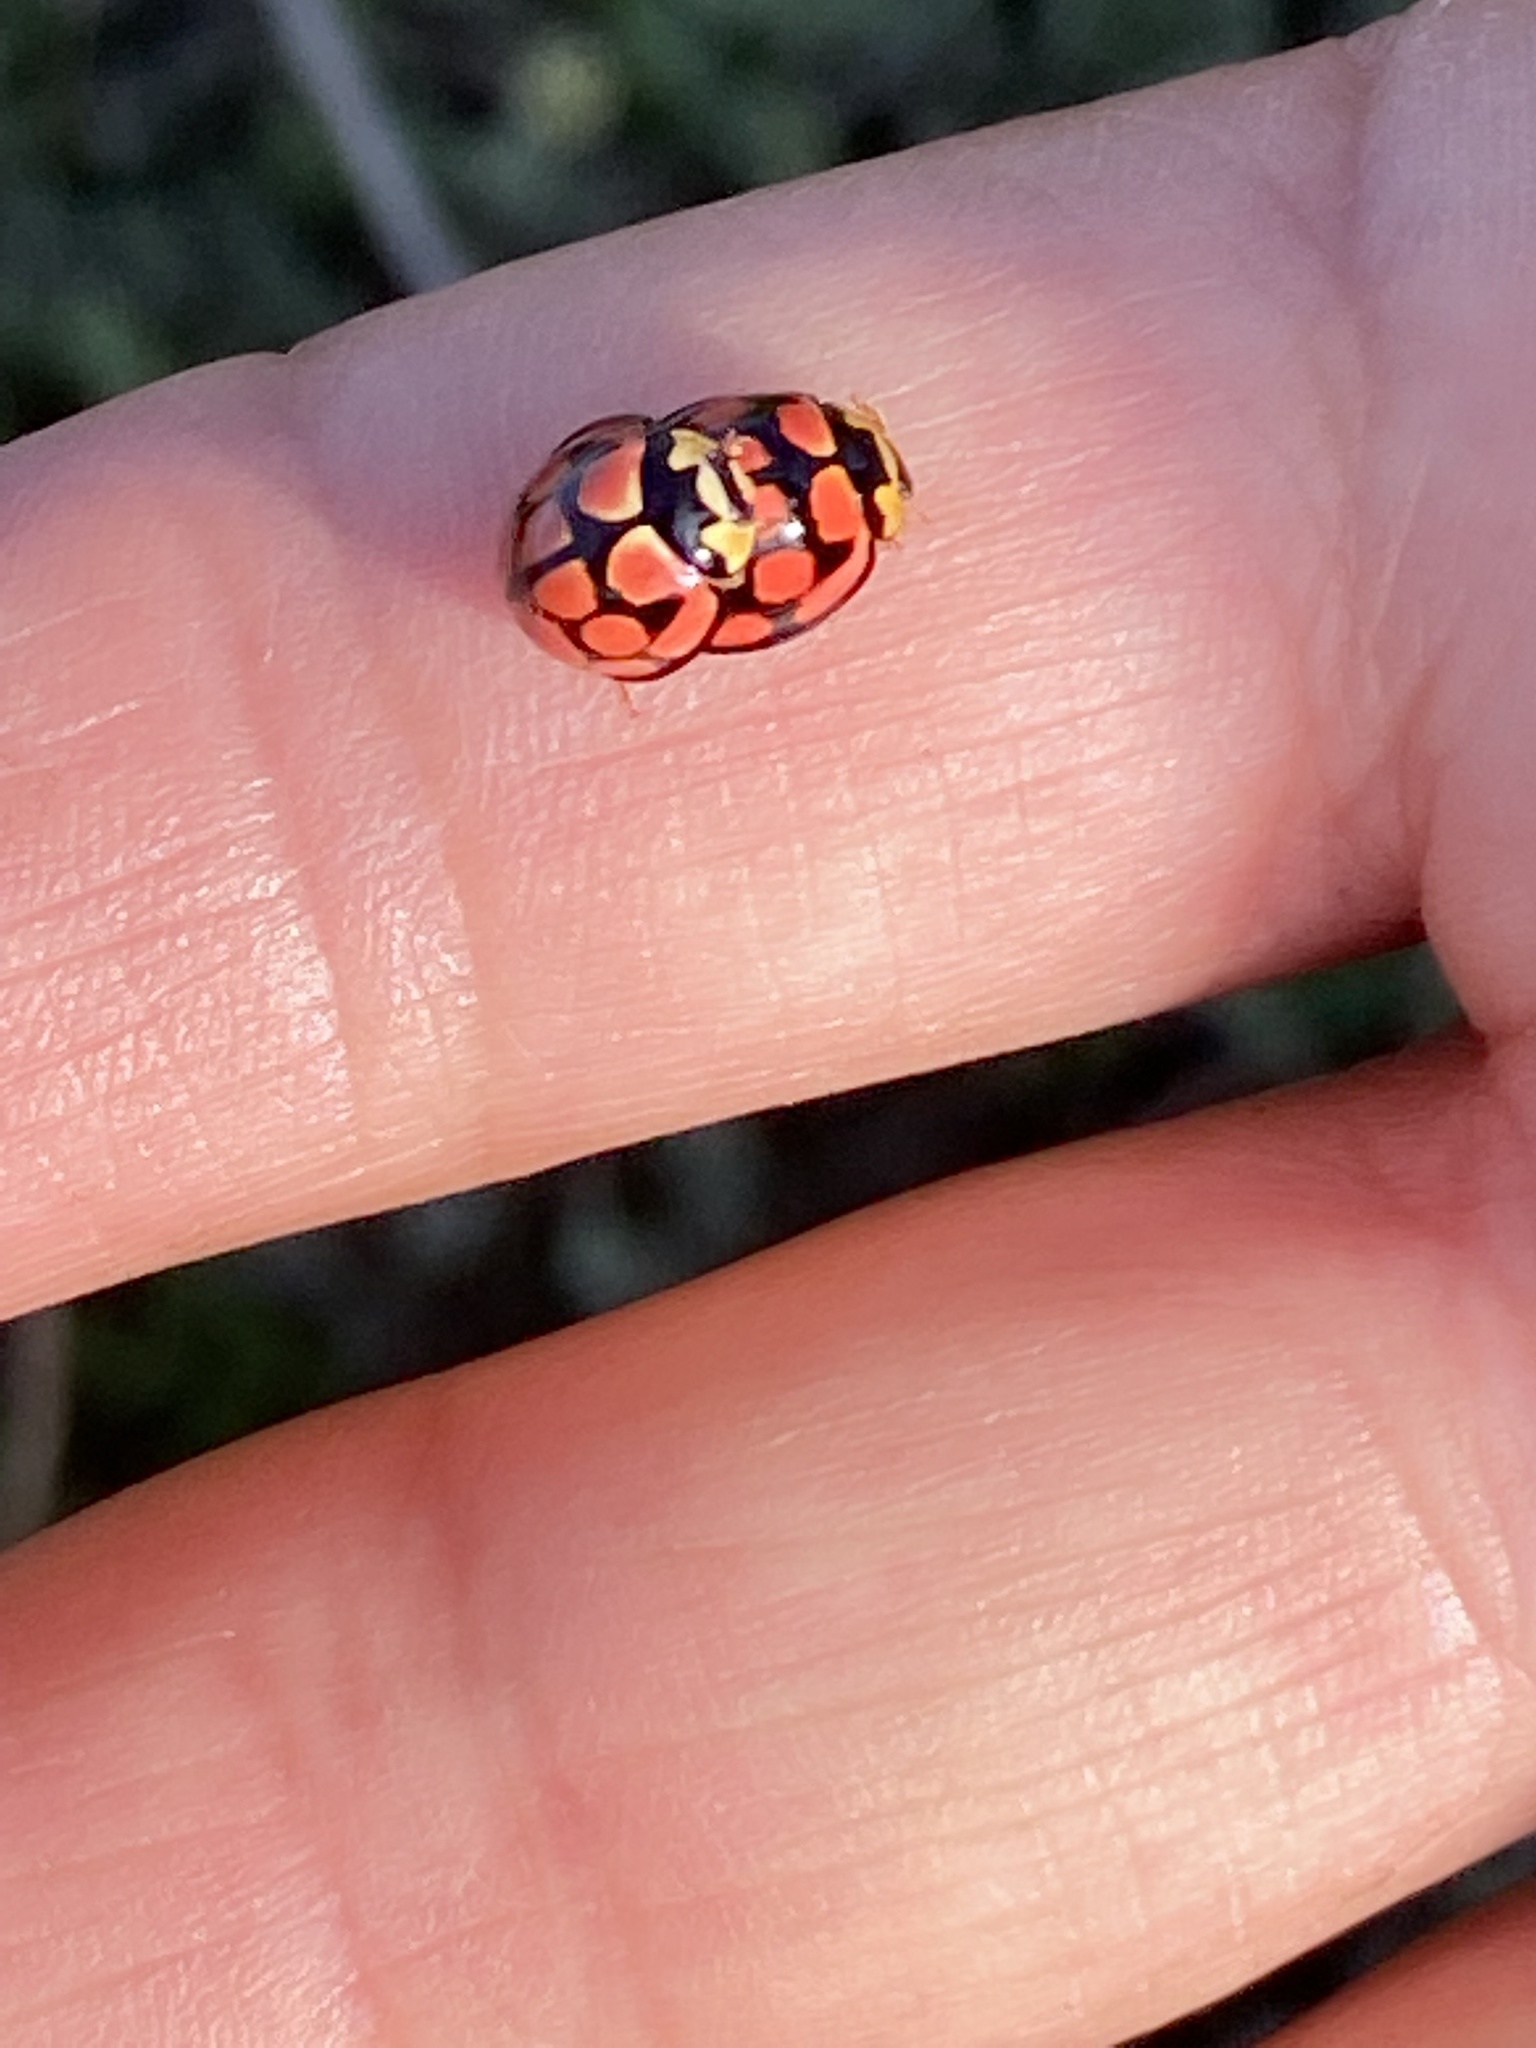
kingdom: Animalia
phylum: Arthropoda
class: Insecta
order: Coleoptera
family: Coccinellidae
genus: Cheilomenes
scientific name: Cheilomenes lunata
